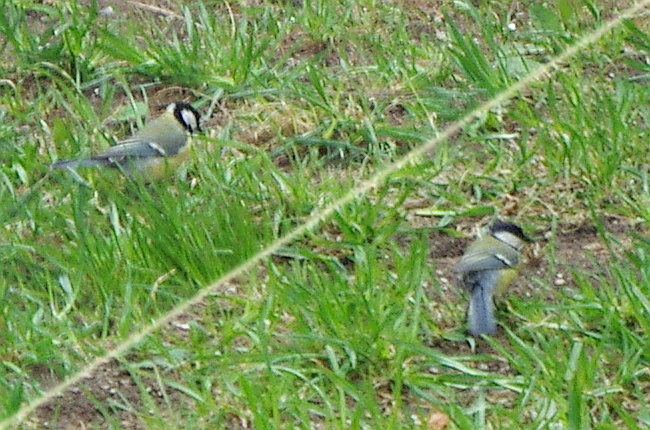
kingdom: Animalia
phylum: Chordata
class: Aves
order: Passeriformes
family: Paridae
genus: Parus
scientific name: Parus major
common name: Great tit
